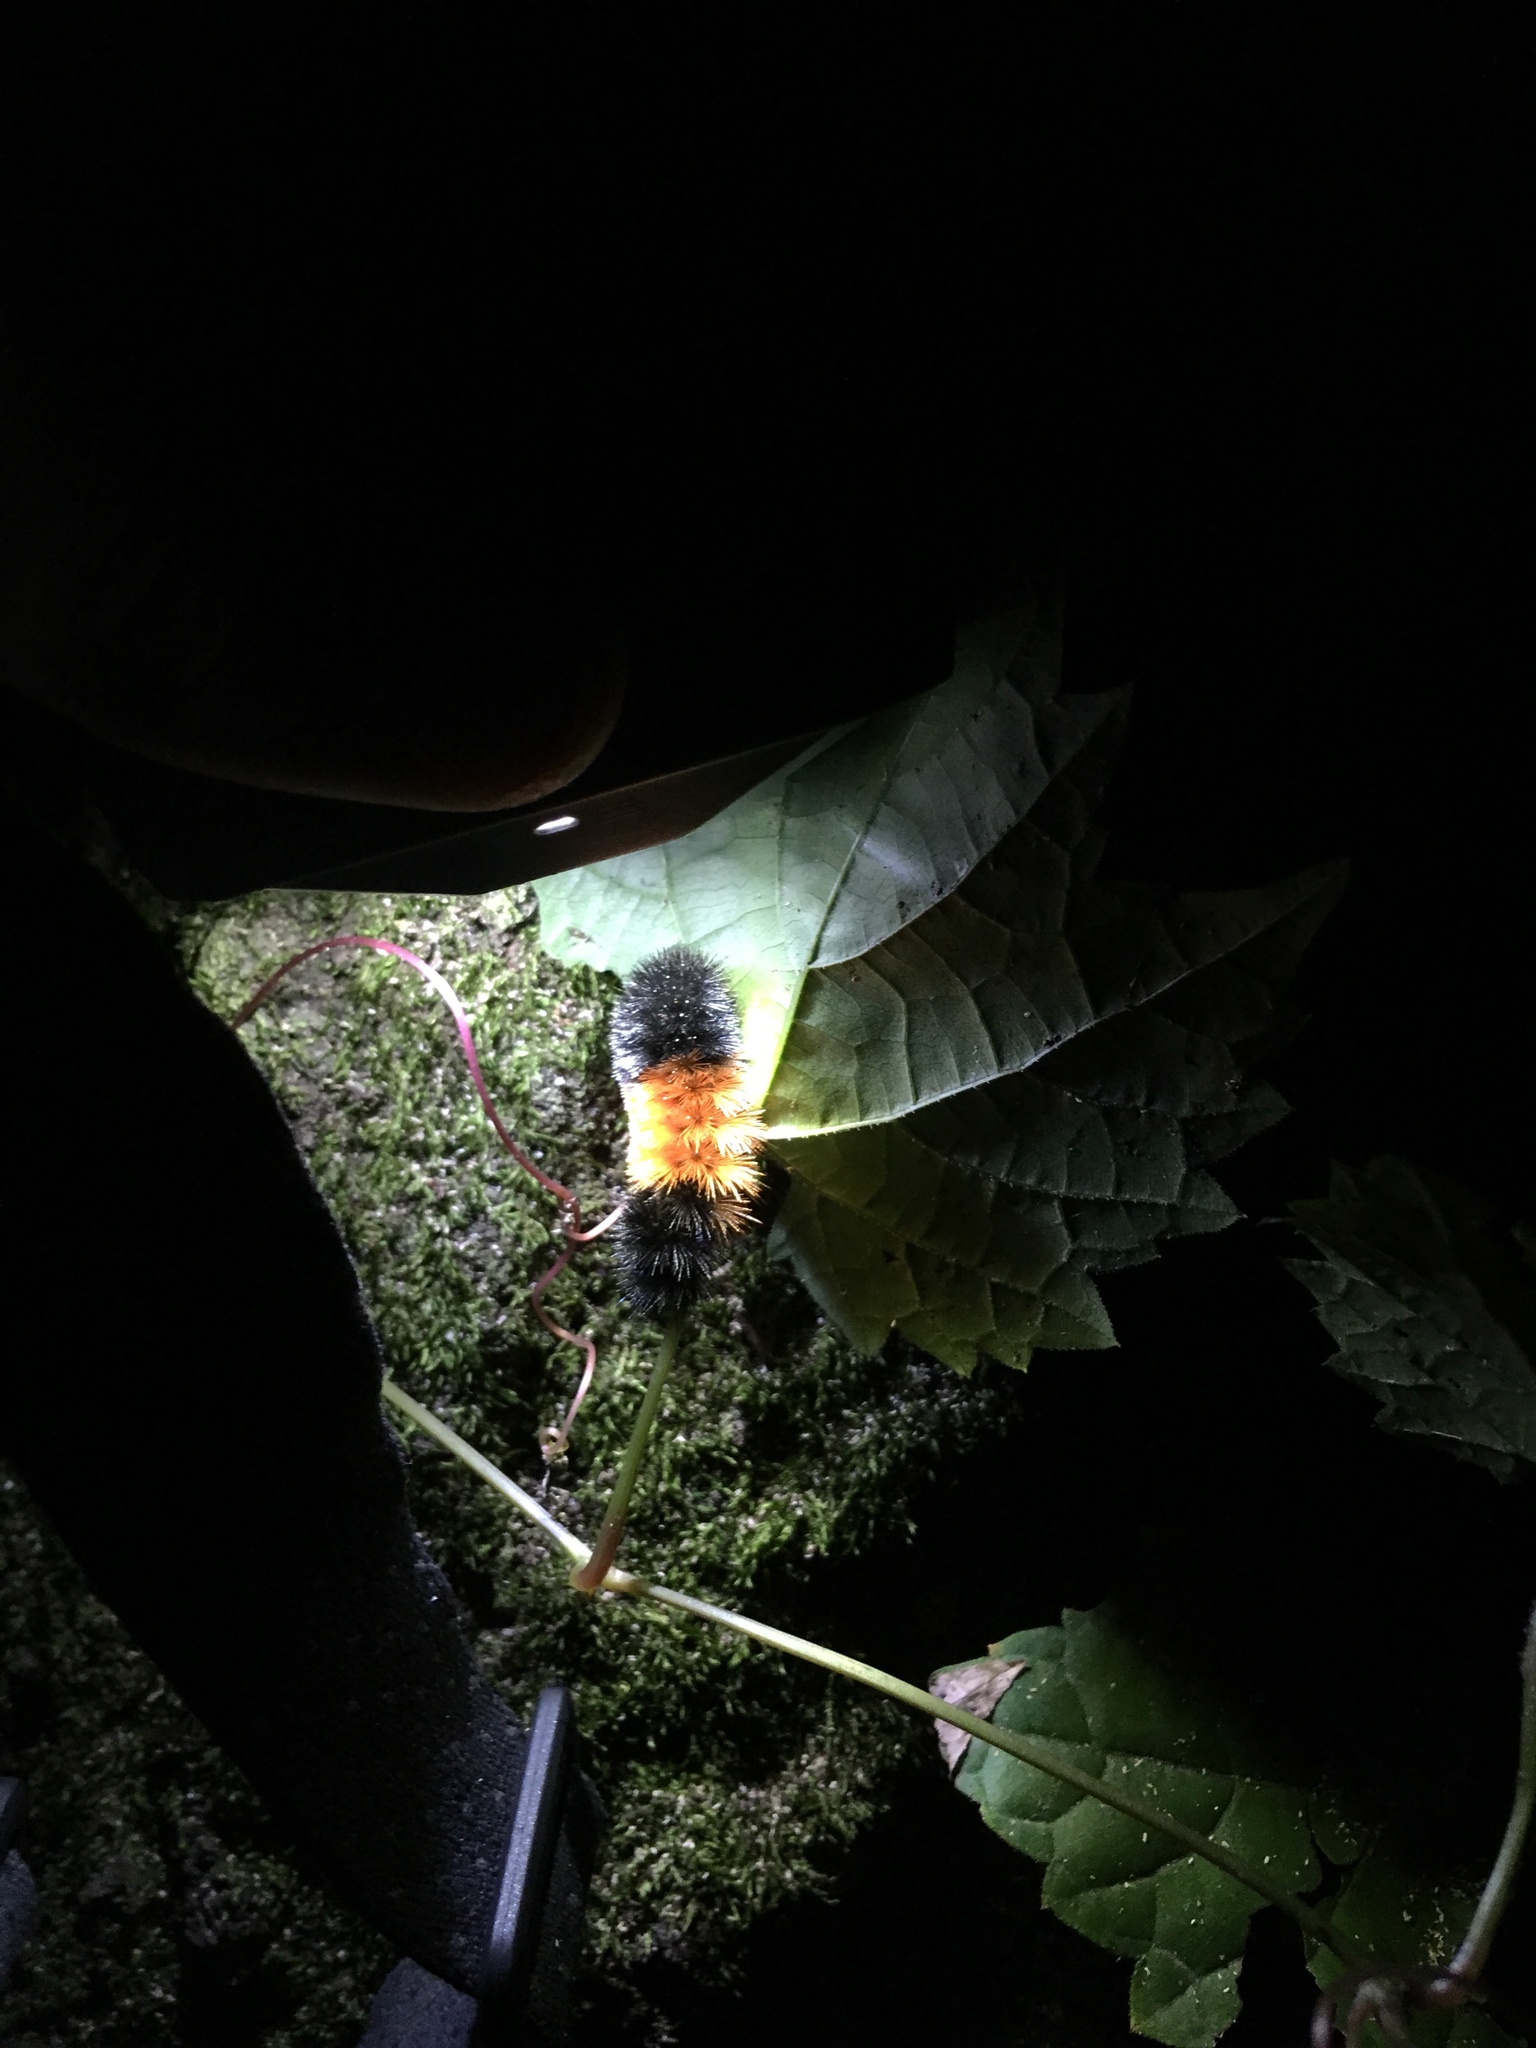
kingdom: Animalia
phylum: Arthropoda
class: Insecta
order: Lepidoptera
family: Erebidae
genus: Pyrrharctia
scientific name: Pyrrharctia isabella
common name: Isabella tiger moth
